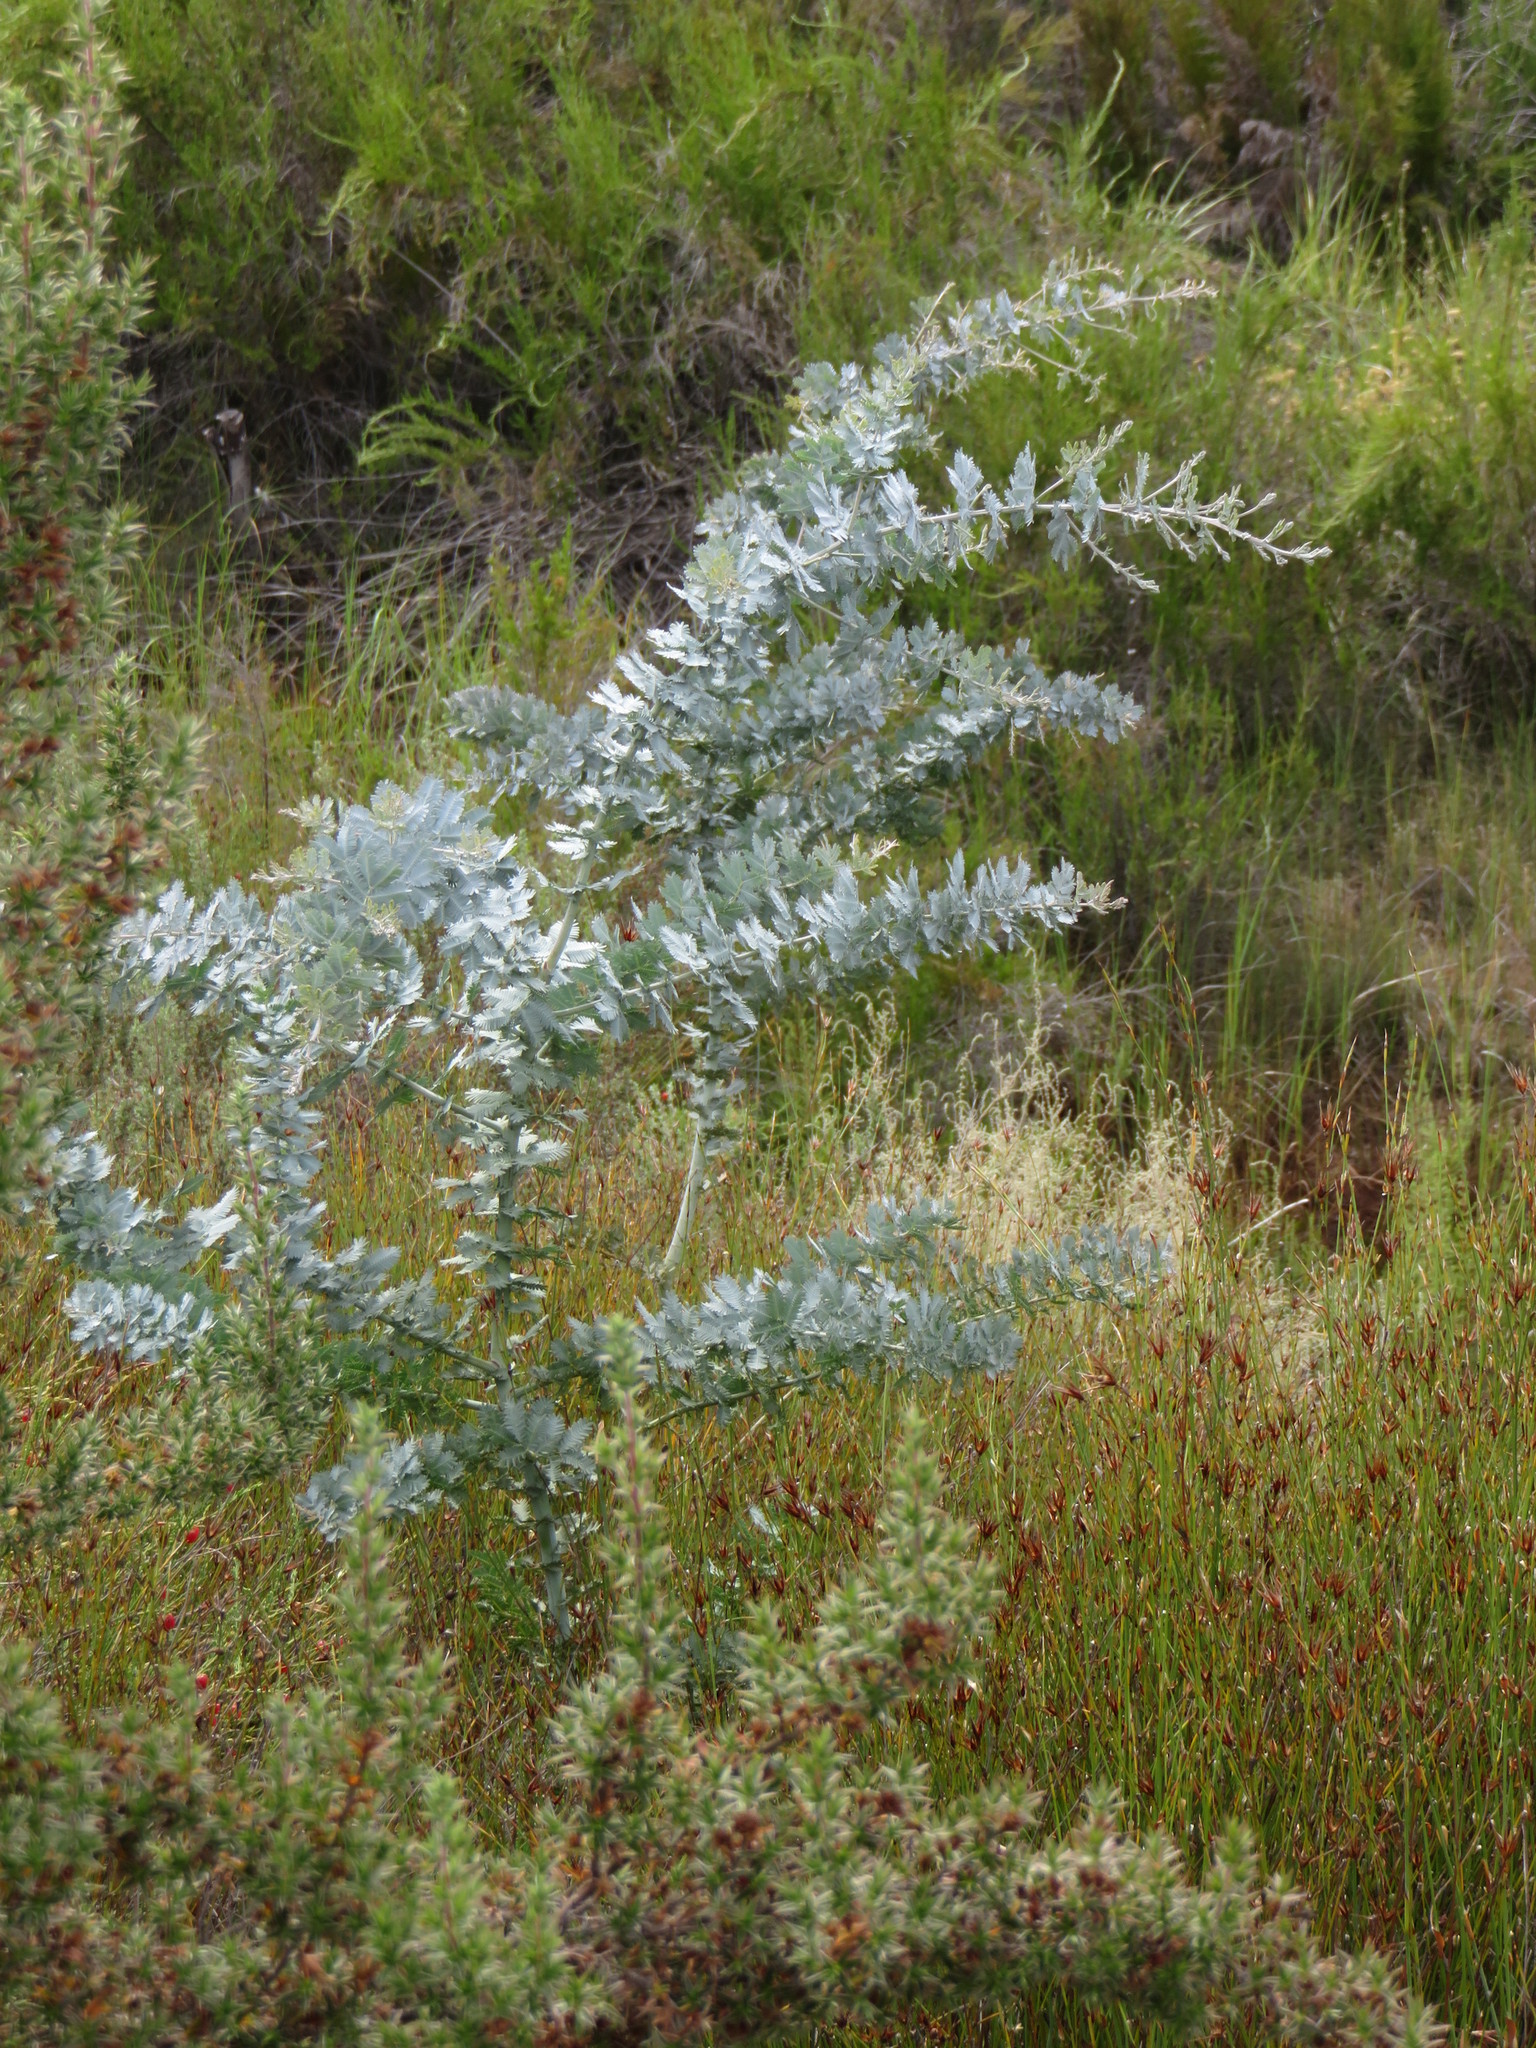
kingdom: Plantae
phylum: Tracheophyta
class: Magnoliopsida
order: Fabales
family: Fabaceae
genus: Acacia
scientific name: Acacia baileyana
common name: Cootamundra wattle
